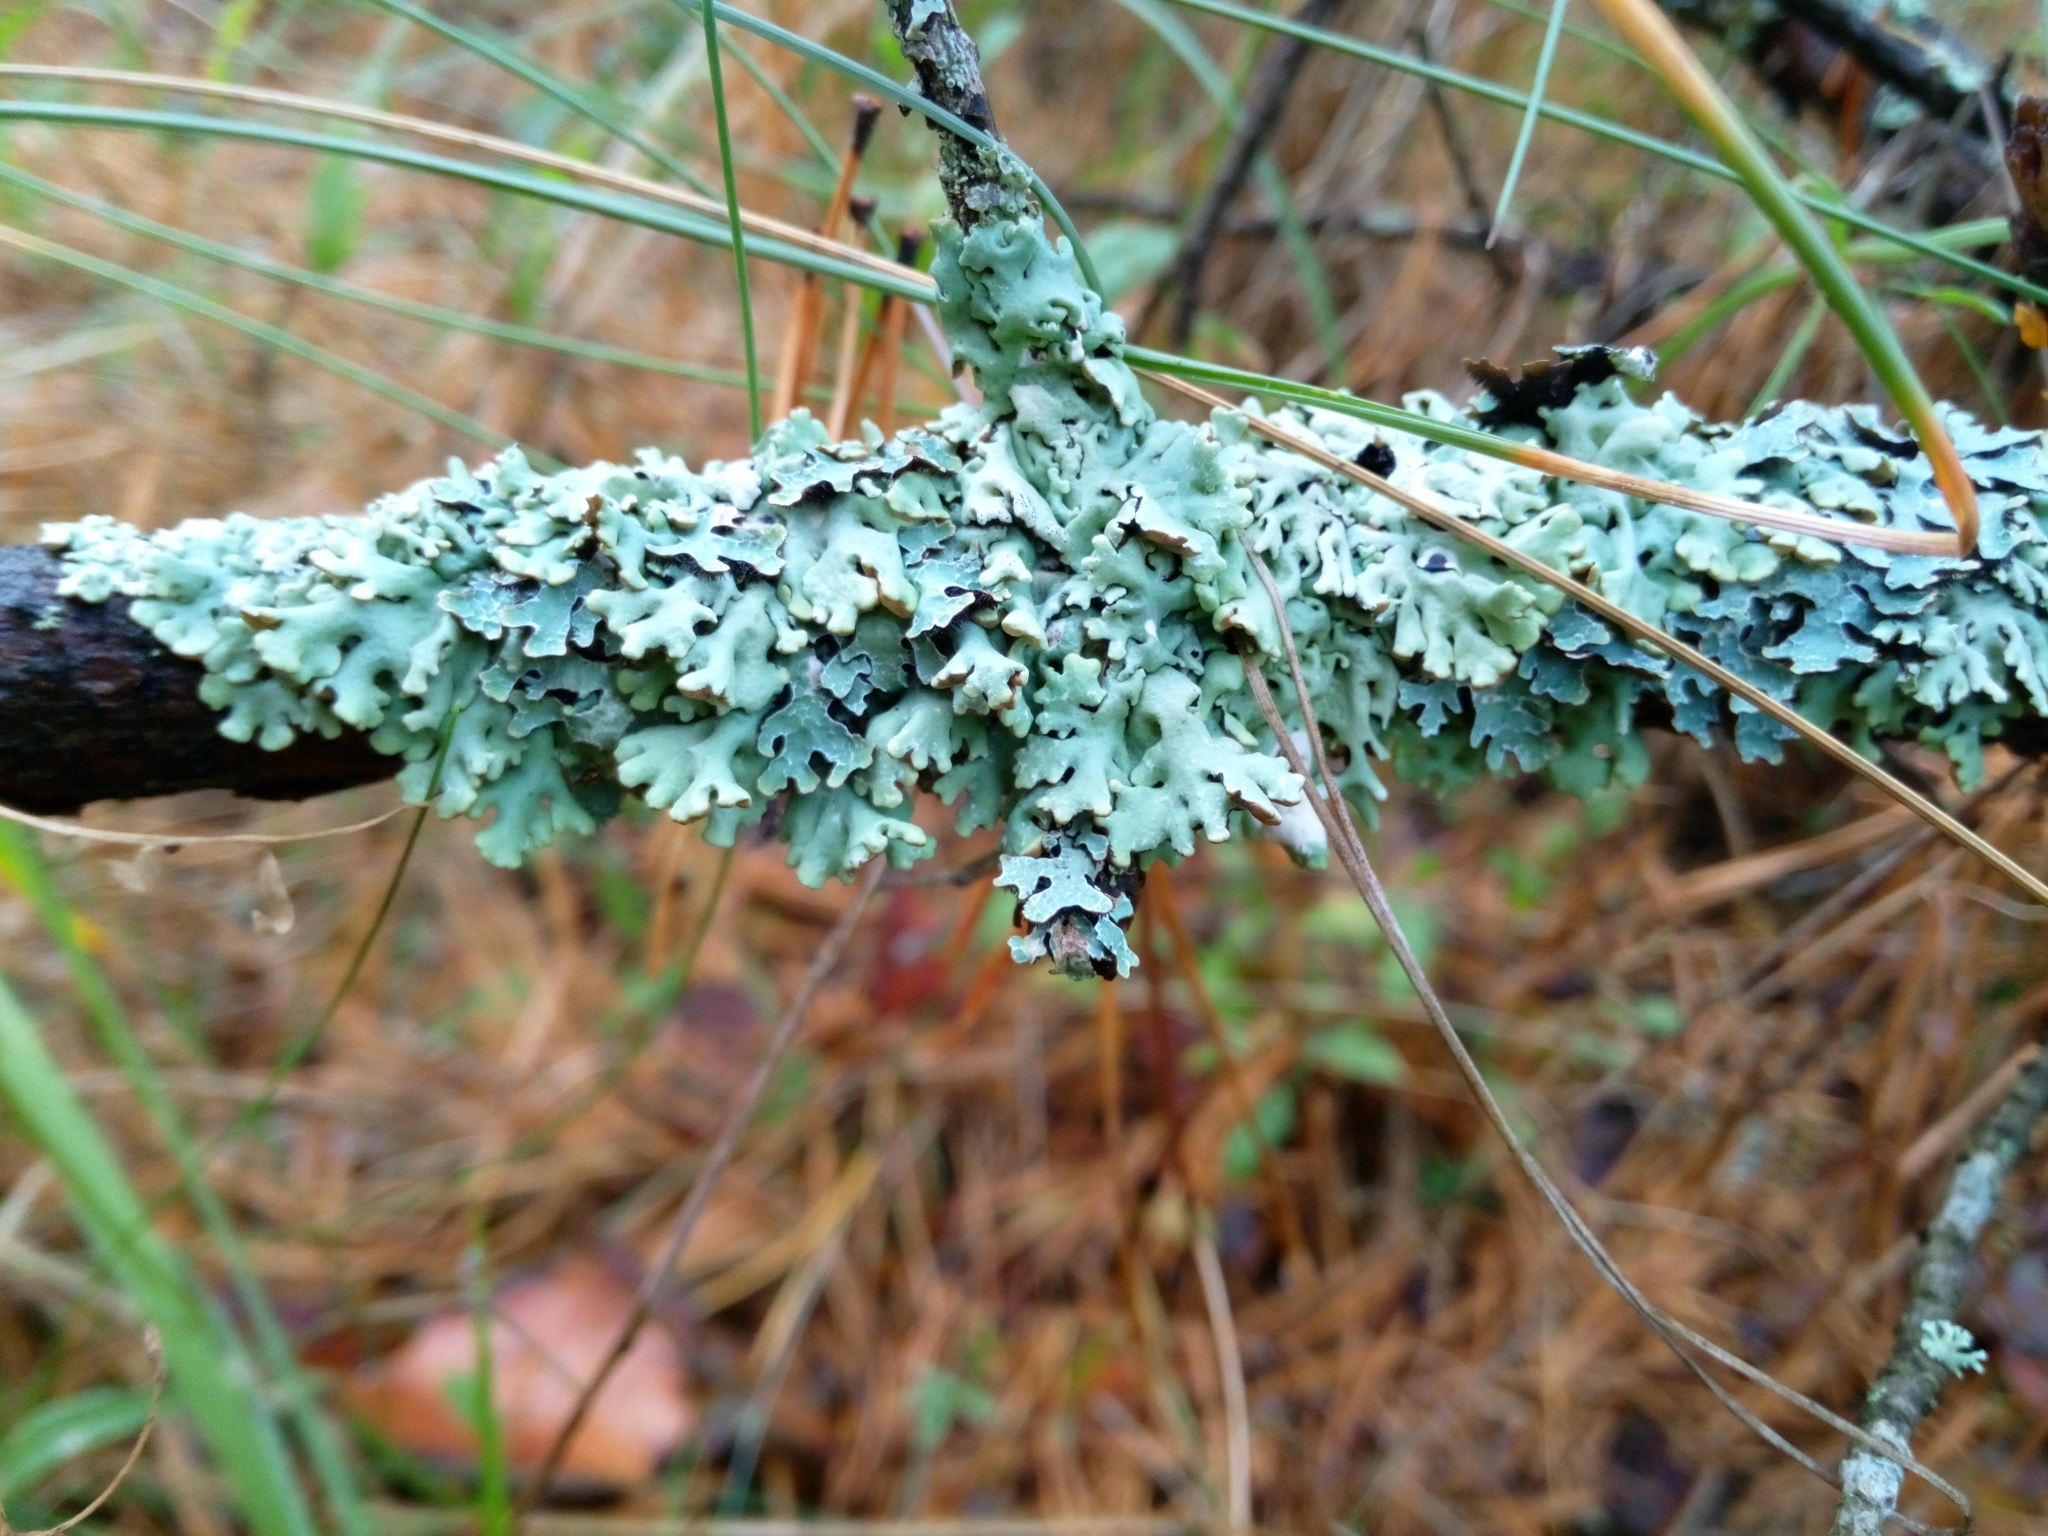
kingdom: Fungi
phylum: Ascomycota
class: Lecanoromycetes
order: Lecanorales
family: Parmeliaceae
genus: Hypogymnia
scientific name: Hypogymnia physodes
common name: Dark crottle
